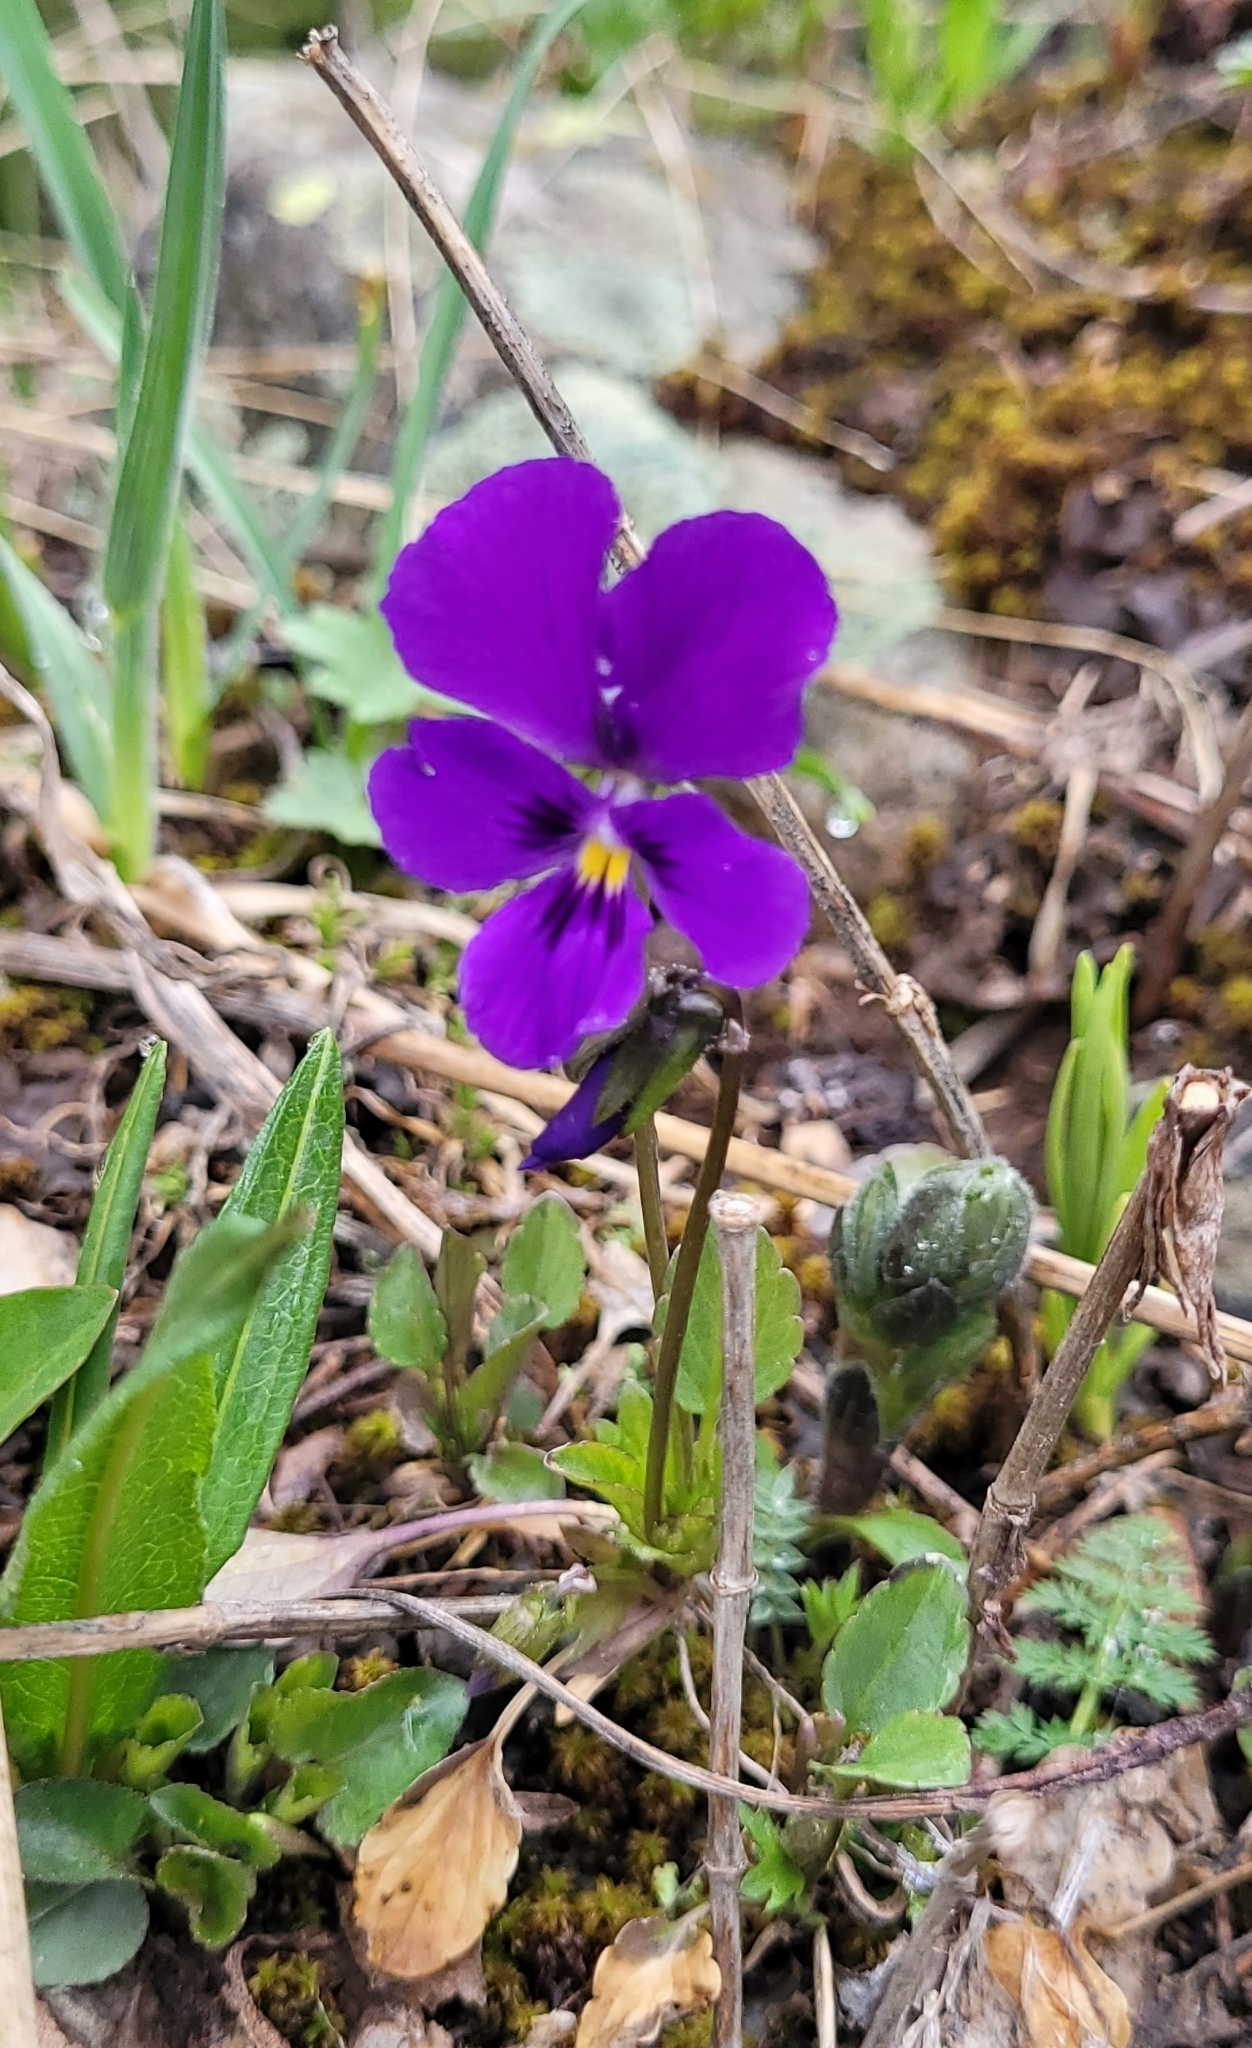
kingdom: Plantae
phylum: Tracheophyta
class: Magnoliopsida
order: Malpighiales
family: Violaceae
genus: Viola
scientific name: Viola altaica
